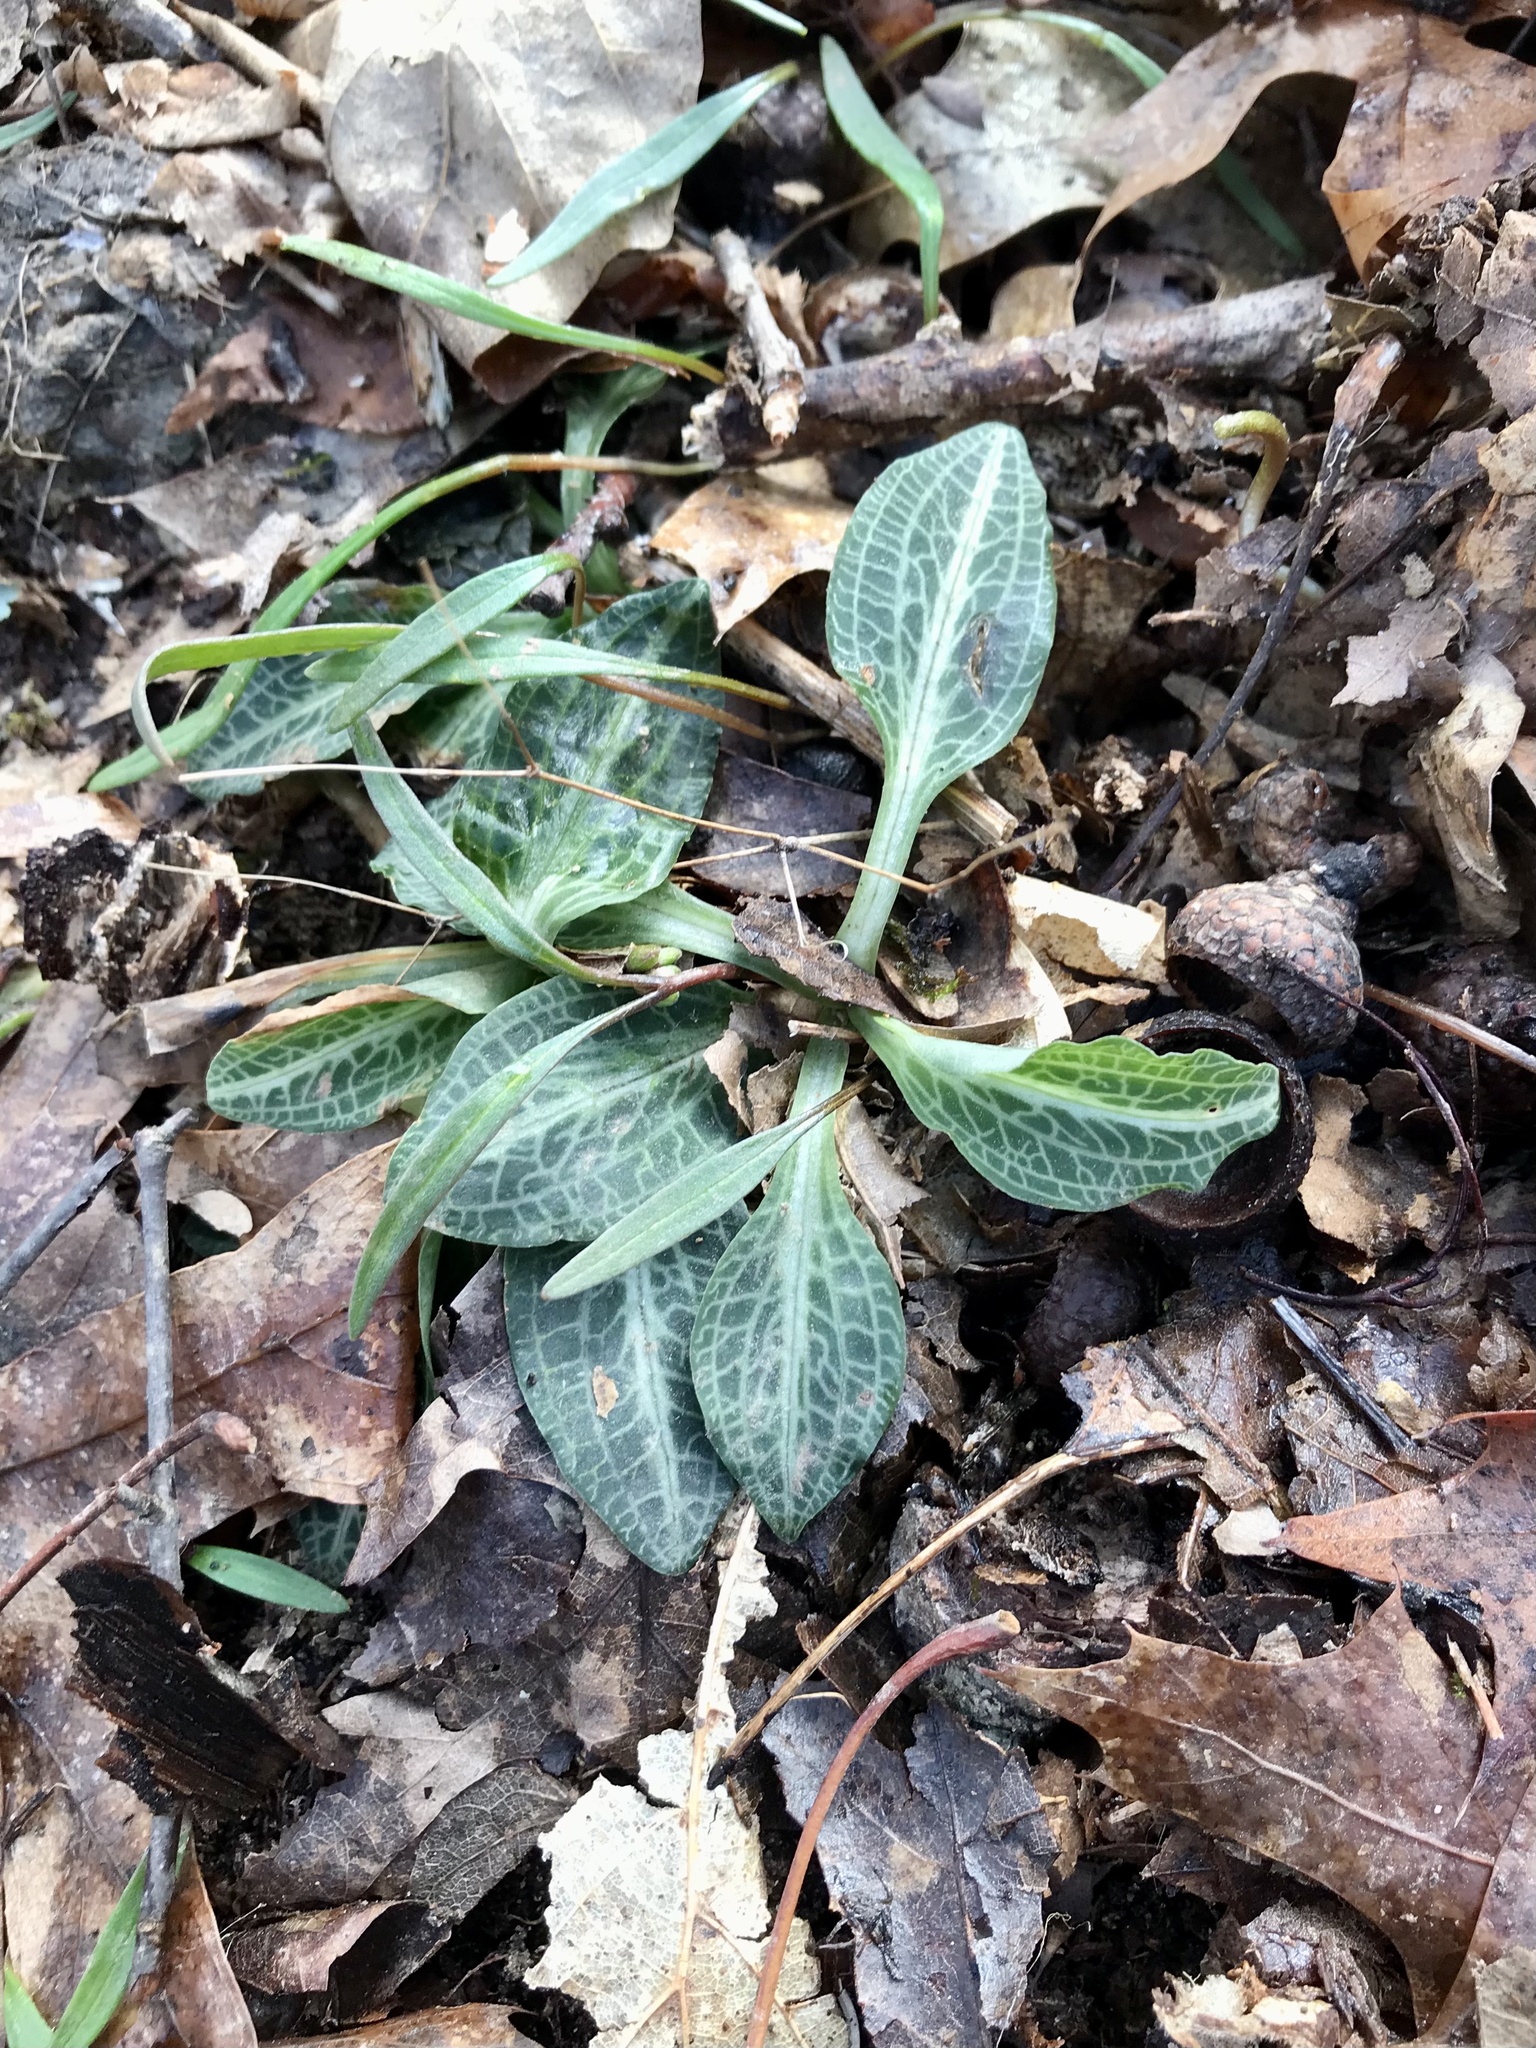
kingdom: Plantae
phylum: Tracheophyta
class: Liliopsida
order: Asparagales
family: Orchidaceae
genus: Goodyera
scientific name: Goodyera pubescens
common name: Downy rattlesnake-plantain
